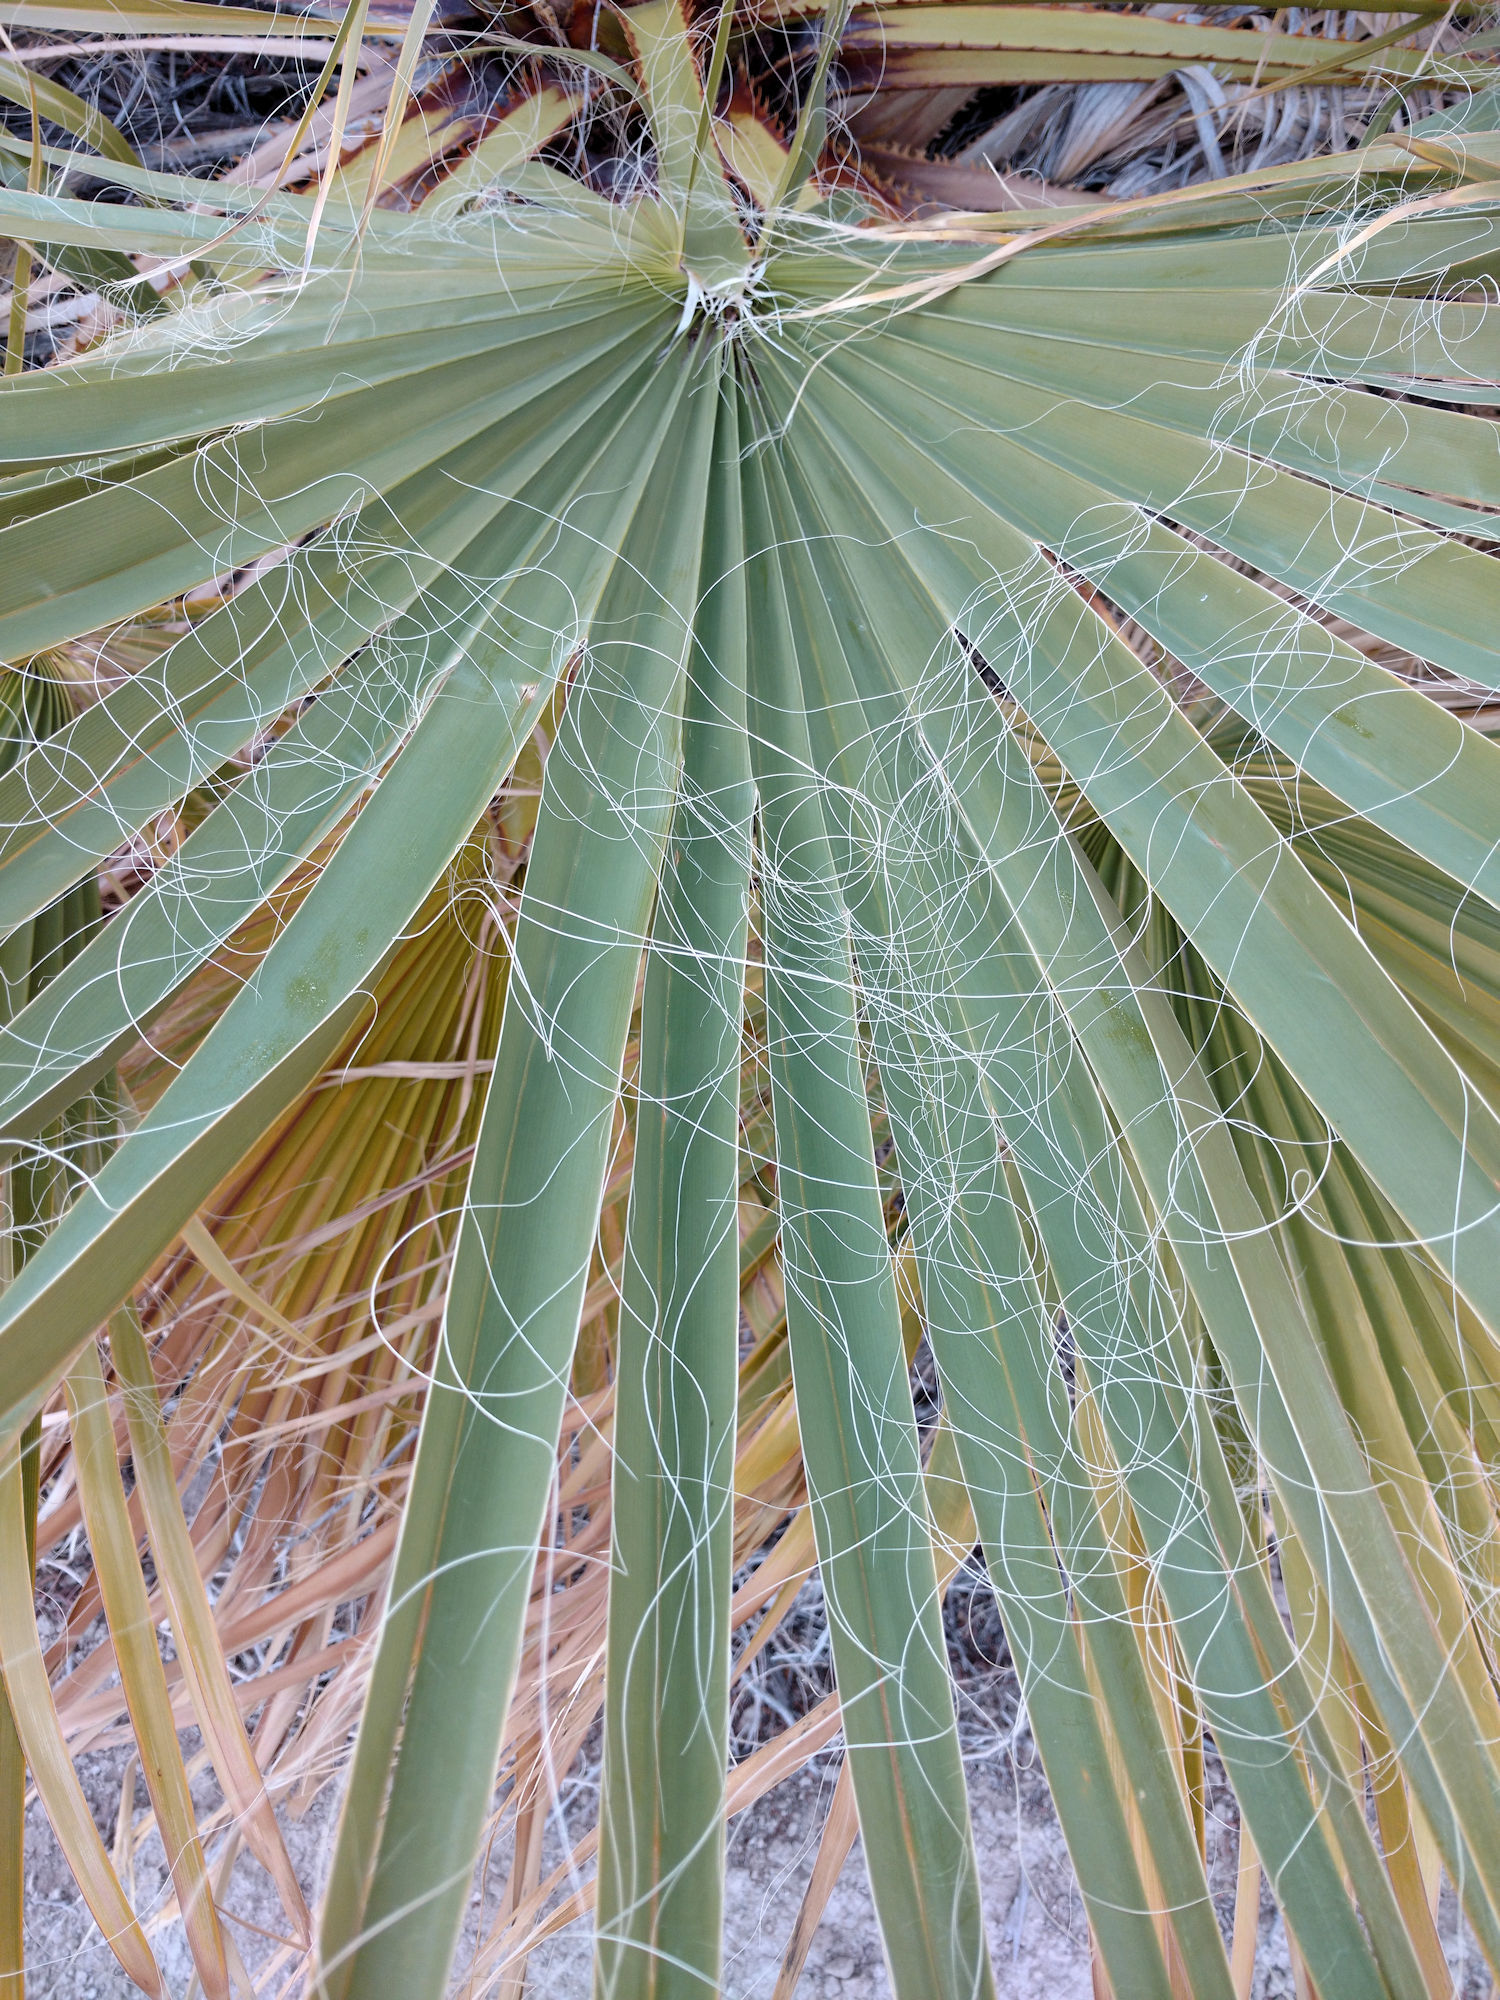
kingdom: Plantae
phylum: Tracheophyta
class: Liliopsida
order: Arecales
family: Arecaceae
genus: Washingtonia
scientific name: Washingtonia filifera
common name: California fan palm
